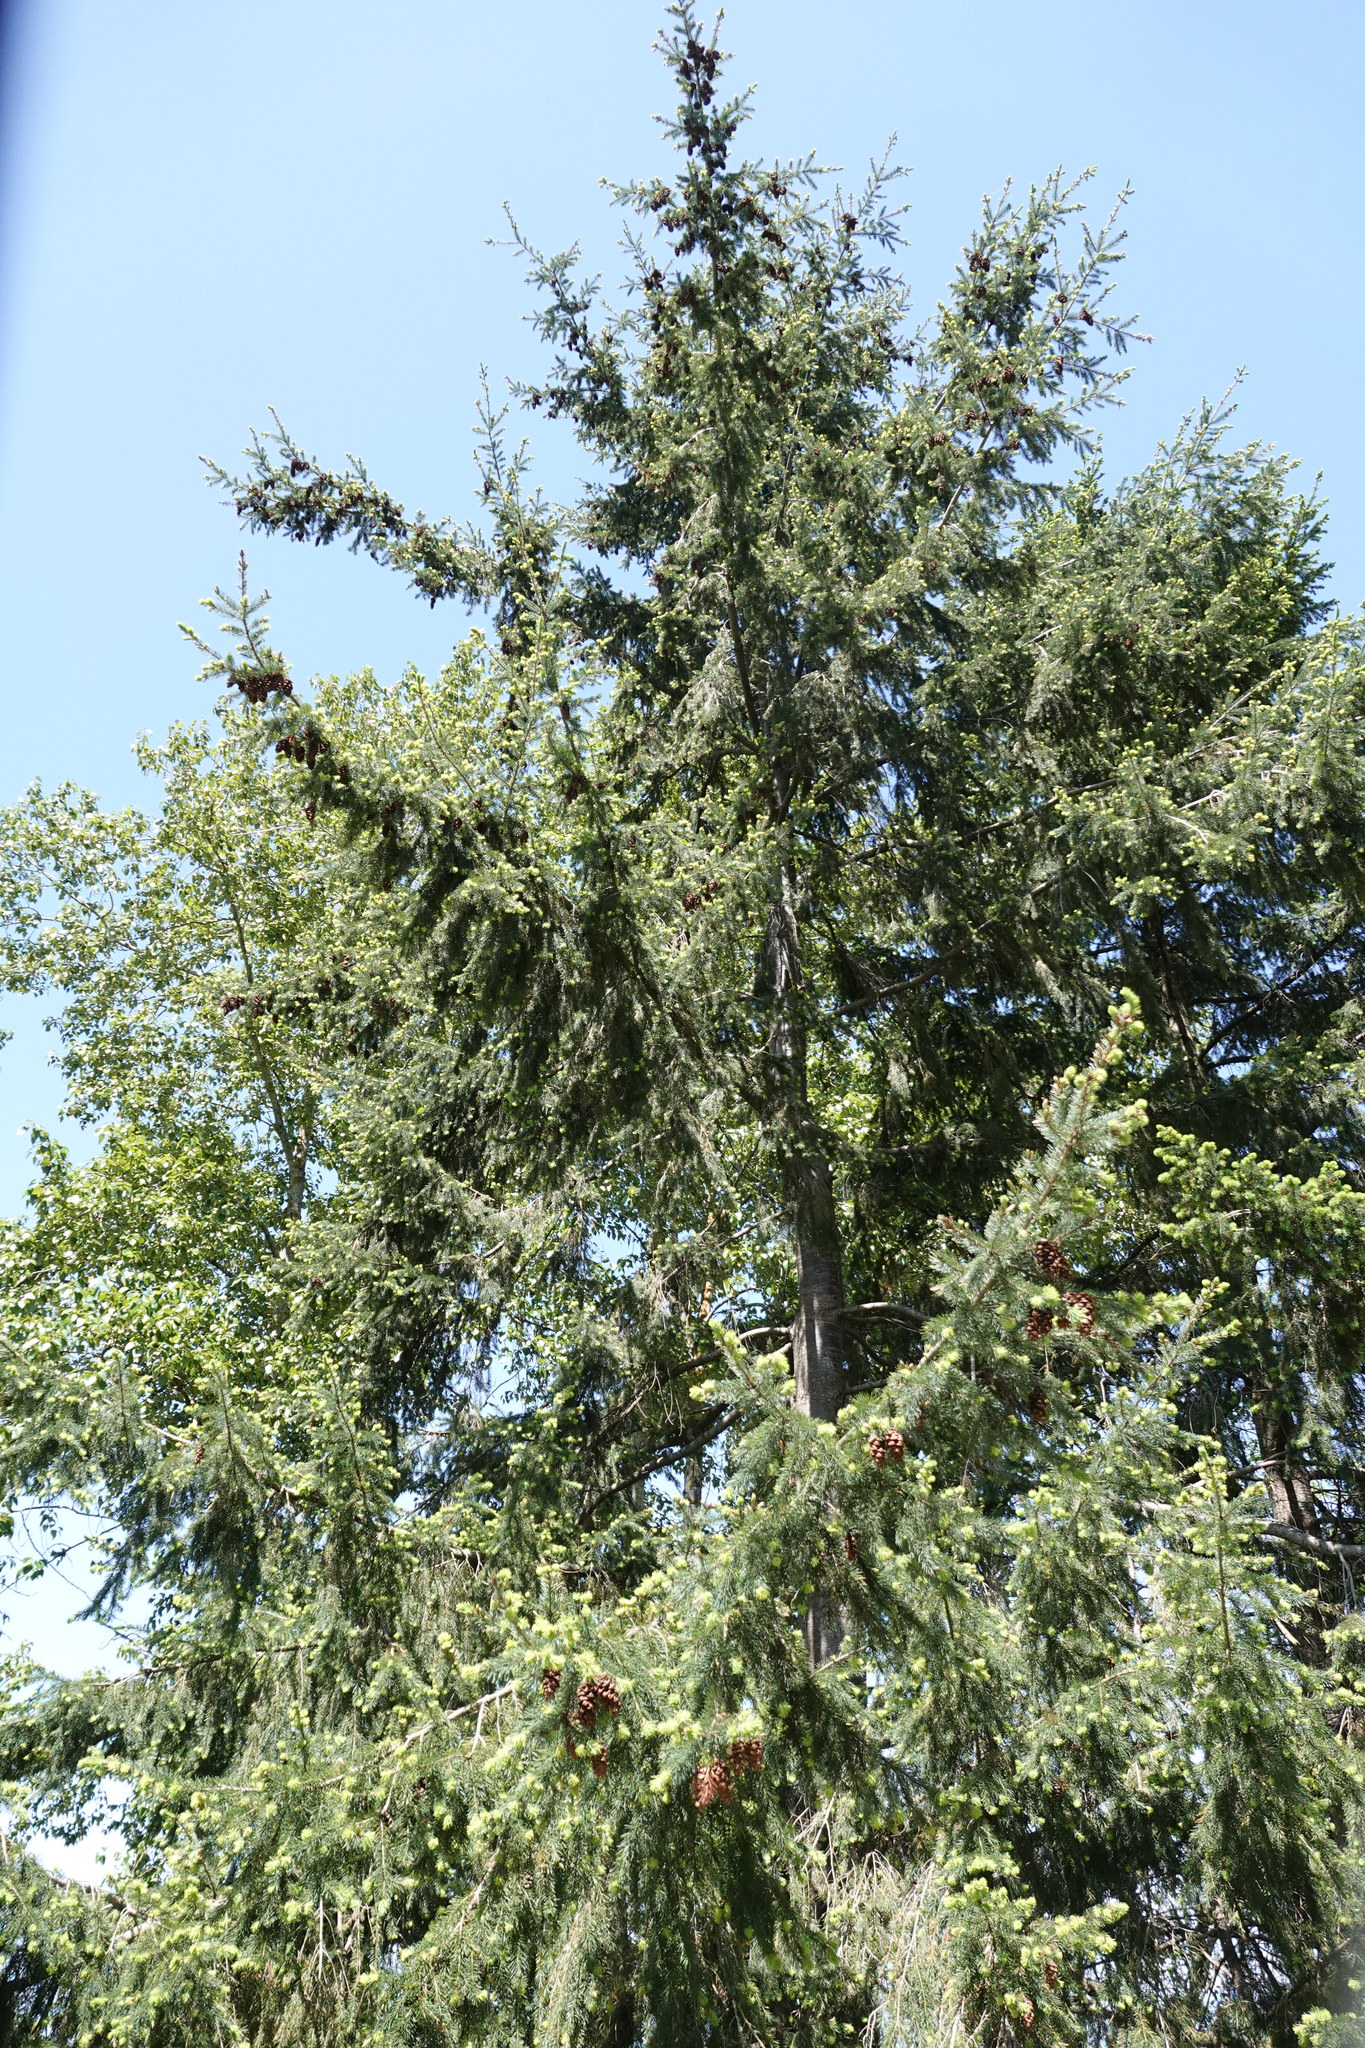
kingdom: Plantae
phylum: Tracheophyta
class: Pinopsida
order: Pinales
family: Pinaceae
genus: Pseudotsuga
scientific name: Pseudotsuga menziesii
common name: Douglas fir
